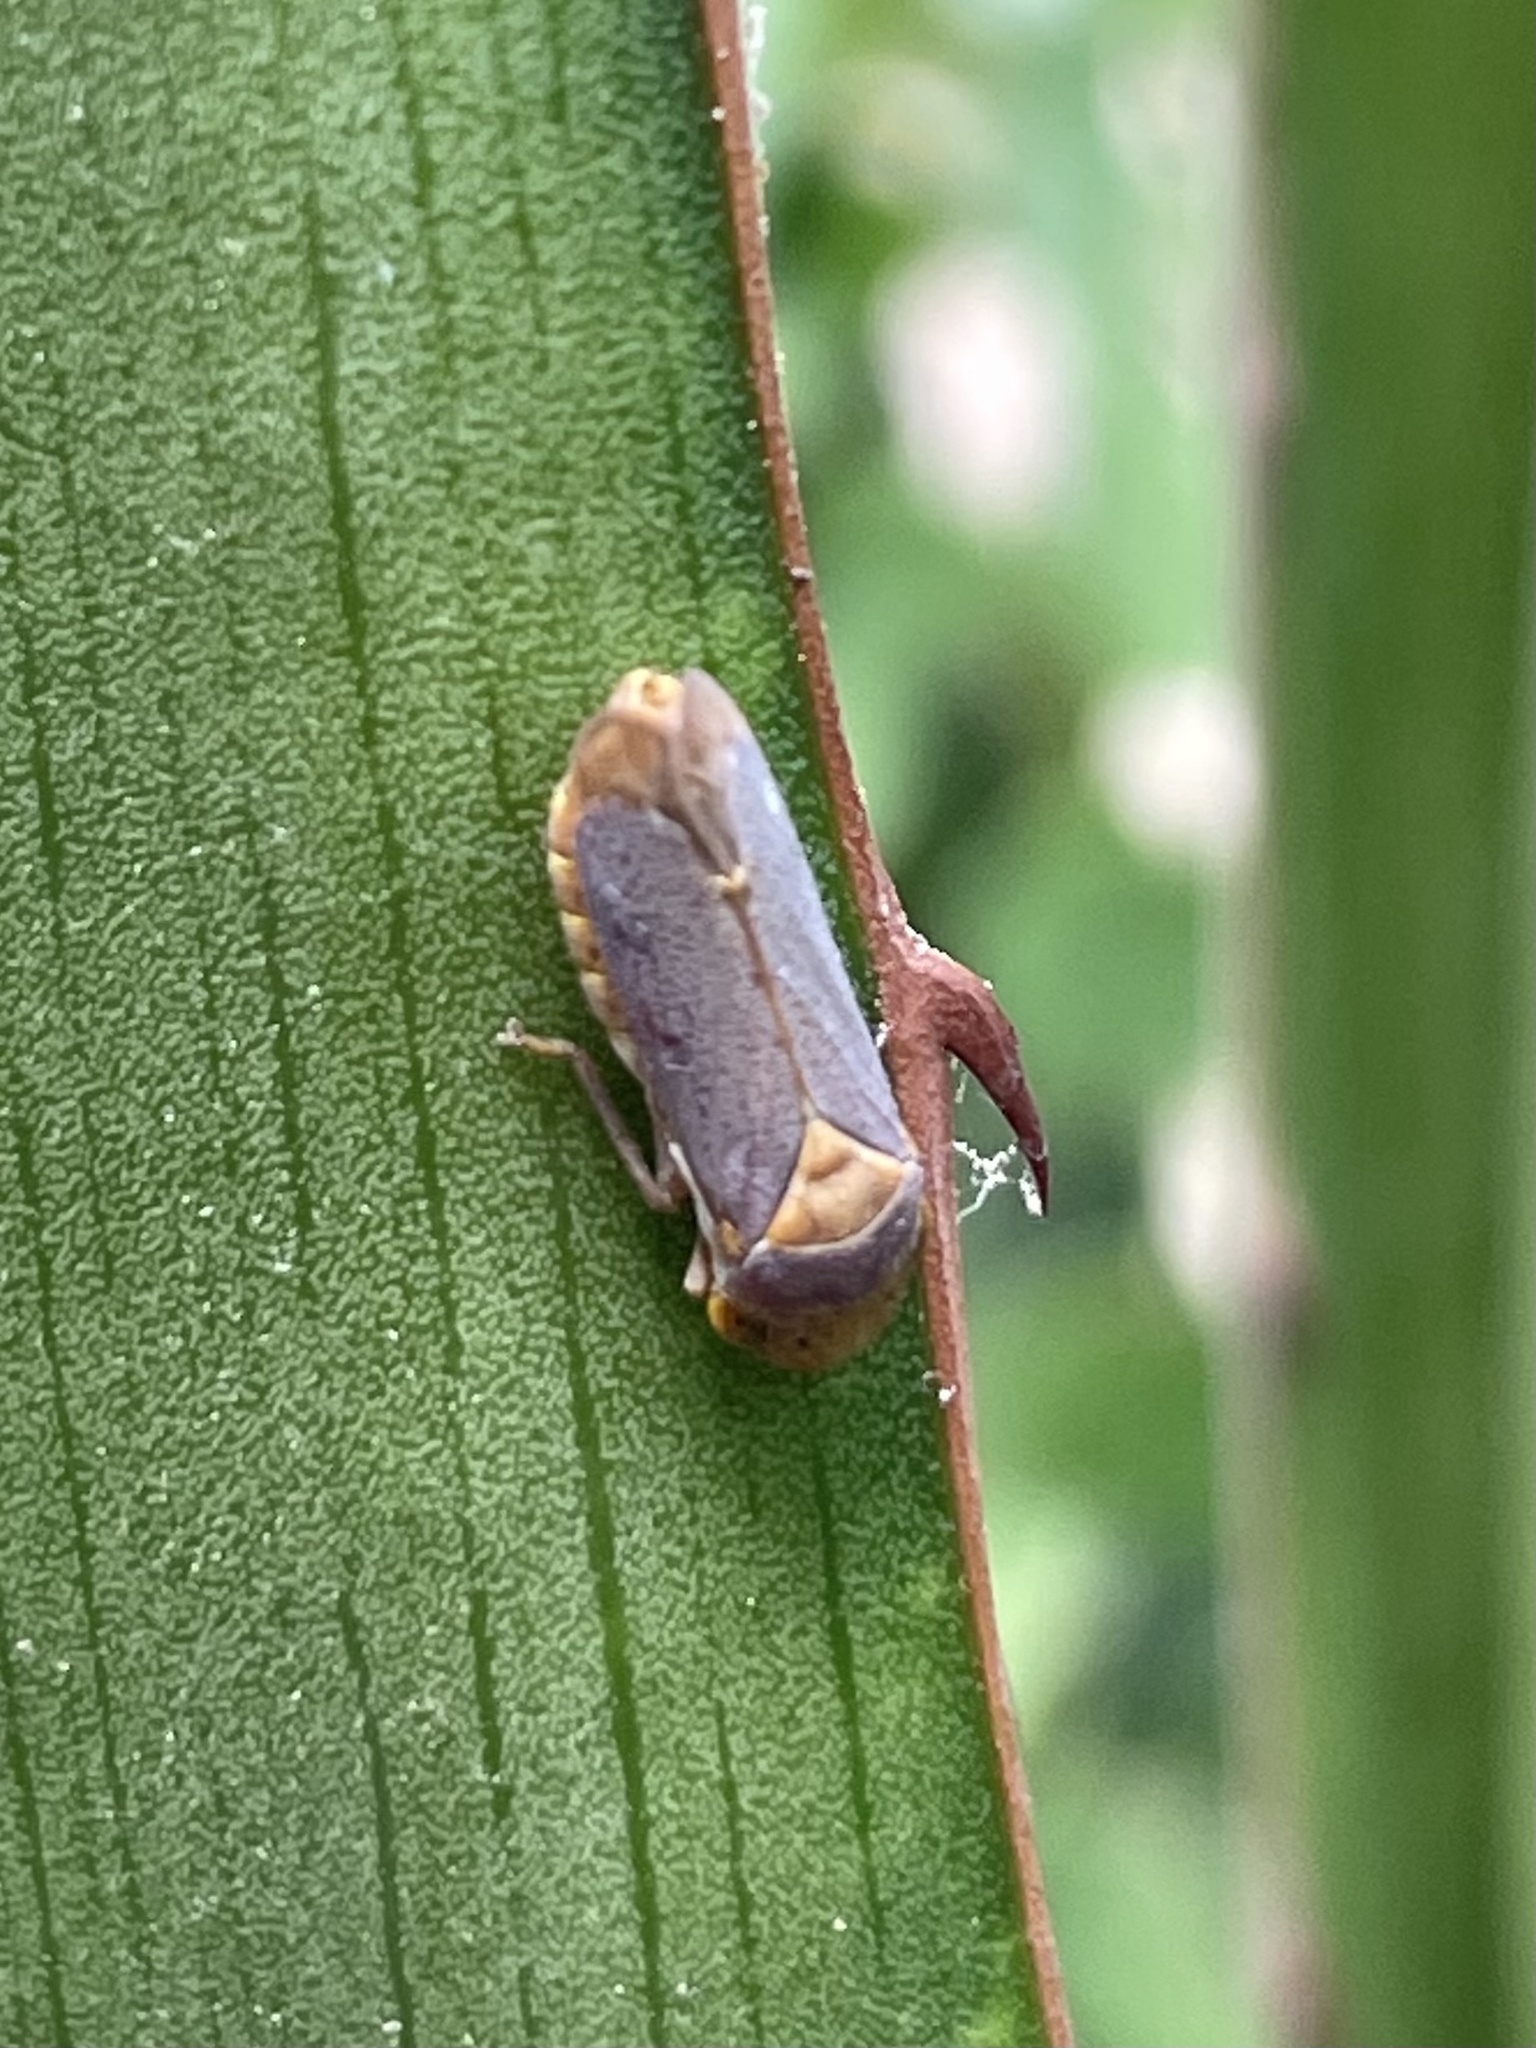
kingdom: Animalia
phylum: Arthropoda
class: Insecta
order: Hemiptera
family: Cicadellidae
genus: Oncometopia
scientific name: Oncometopia hamiltoni
